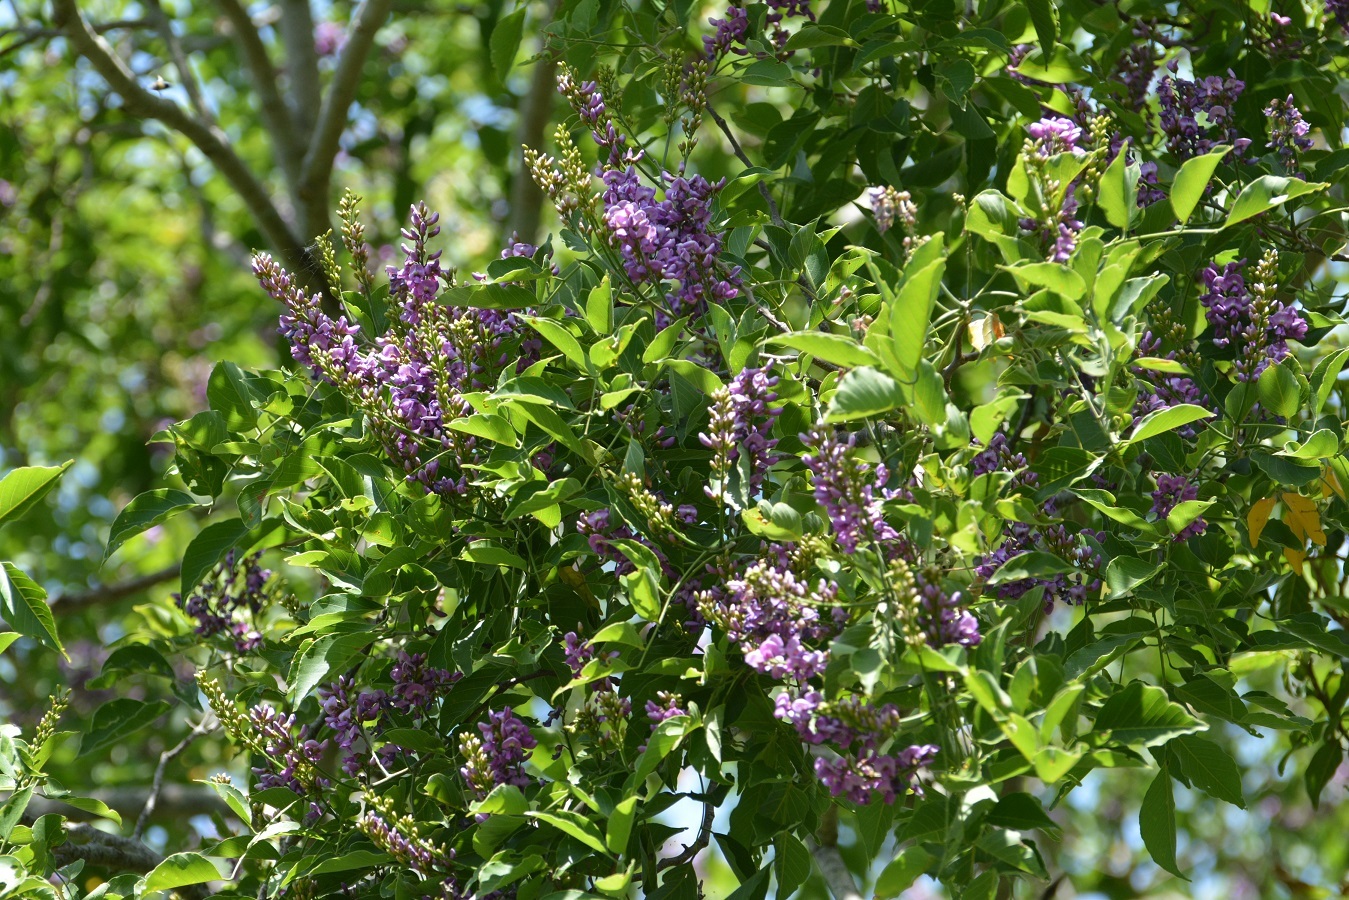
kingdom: Plantae
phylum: Tracheophyta
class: Magnoliopsida
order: Fabales
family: Fabaceae
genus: Lonchocarpus
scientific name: Lonchocarpus sumiderensis
